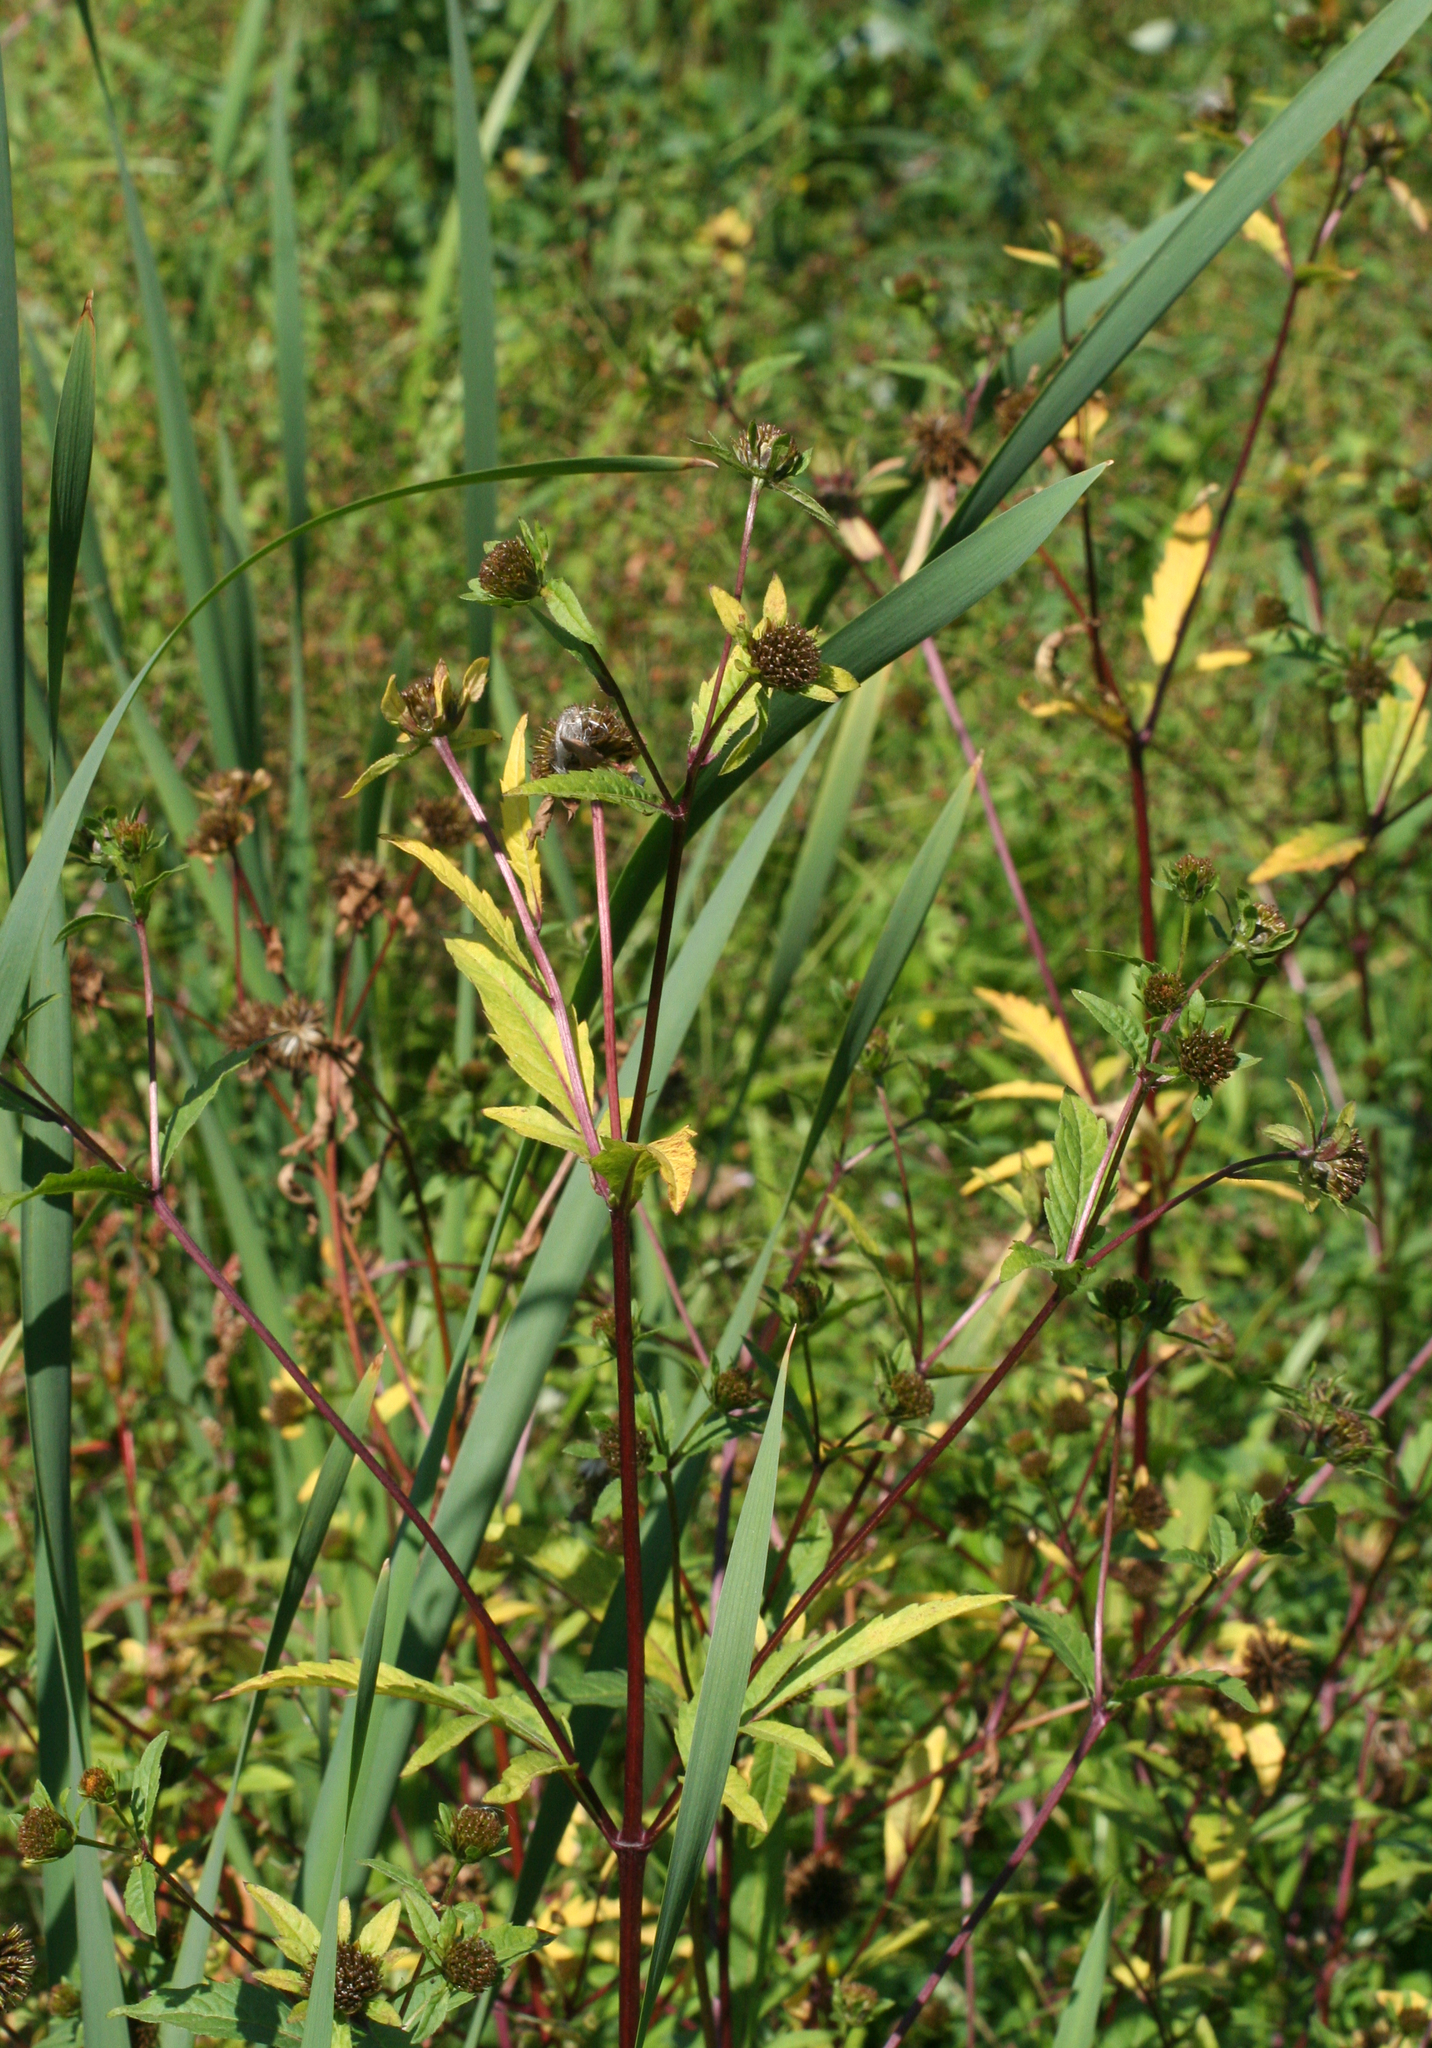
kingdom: Plantae
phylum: Tracheophyta
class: Magnoliopsida
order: Asterales
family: Asteraceae
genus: Bidens
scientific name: Bidens tripartita
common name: Trifid bur-marigold
